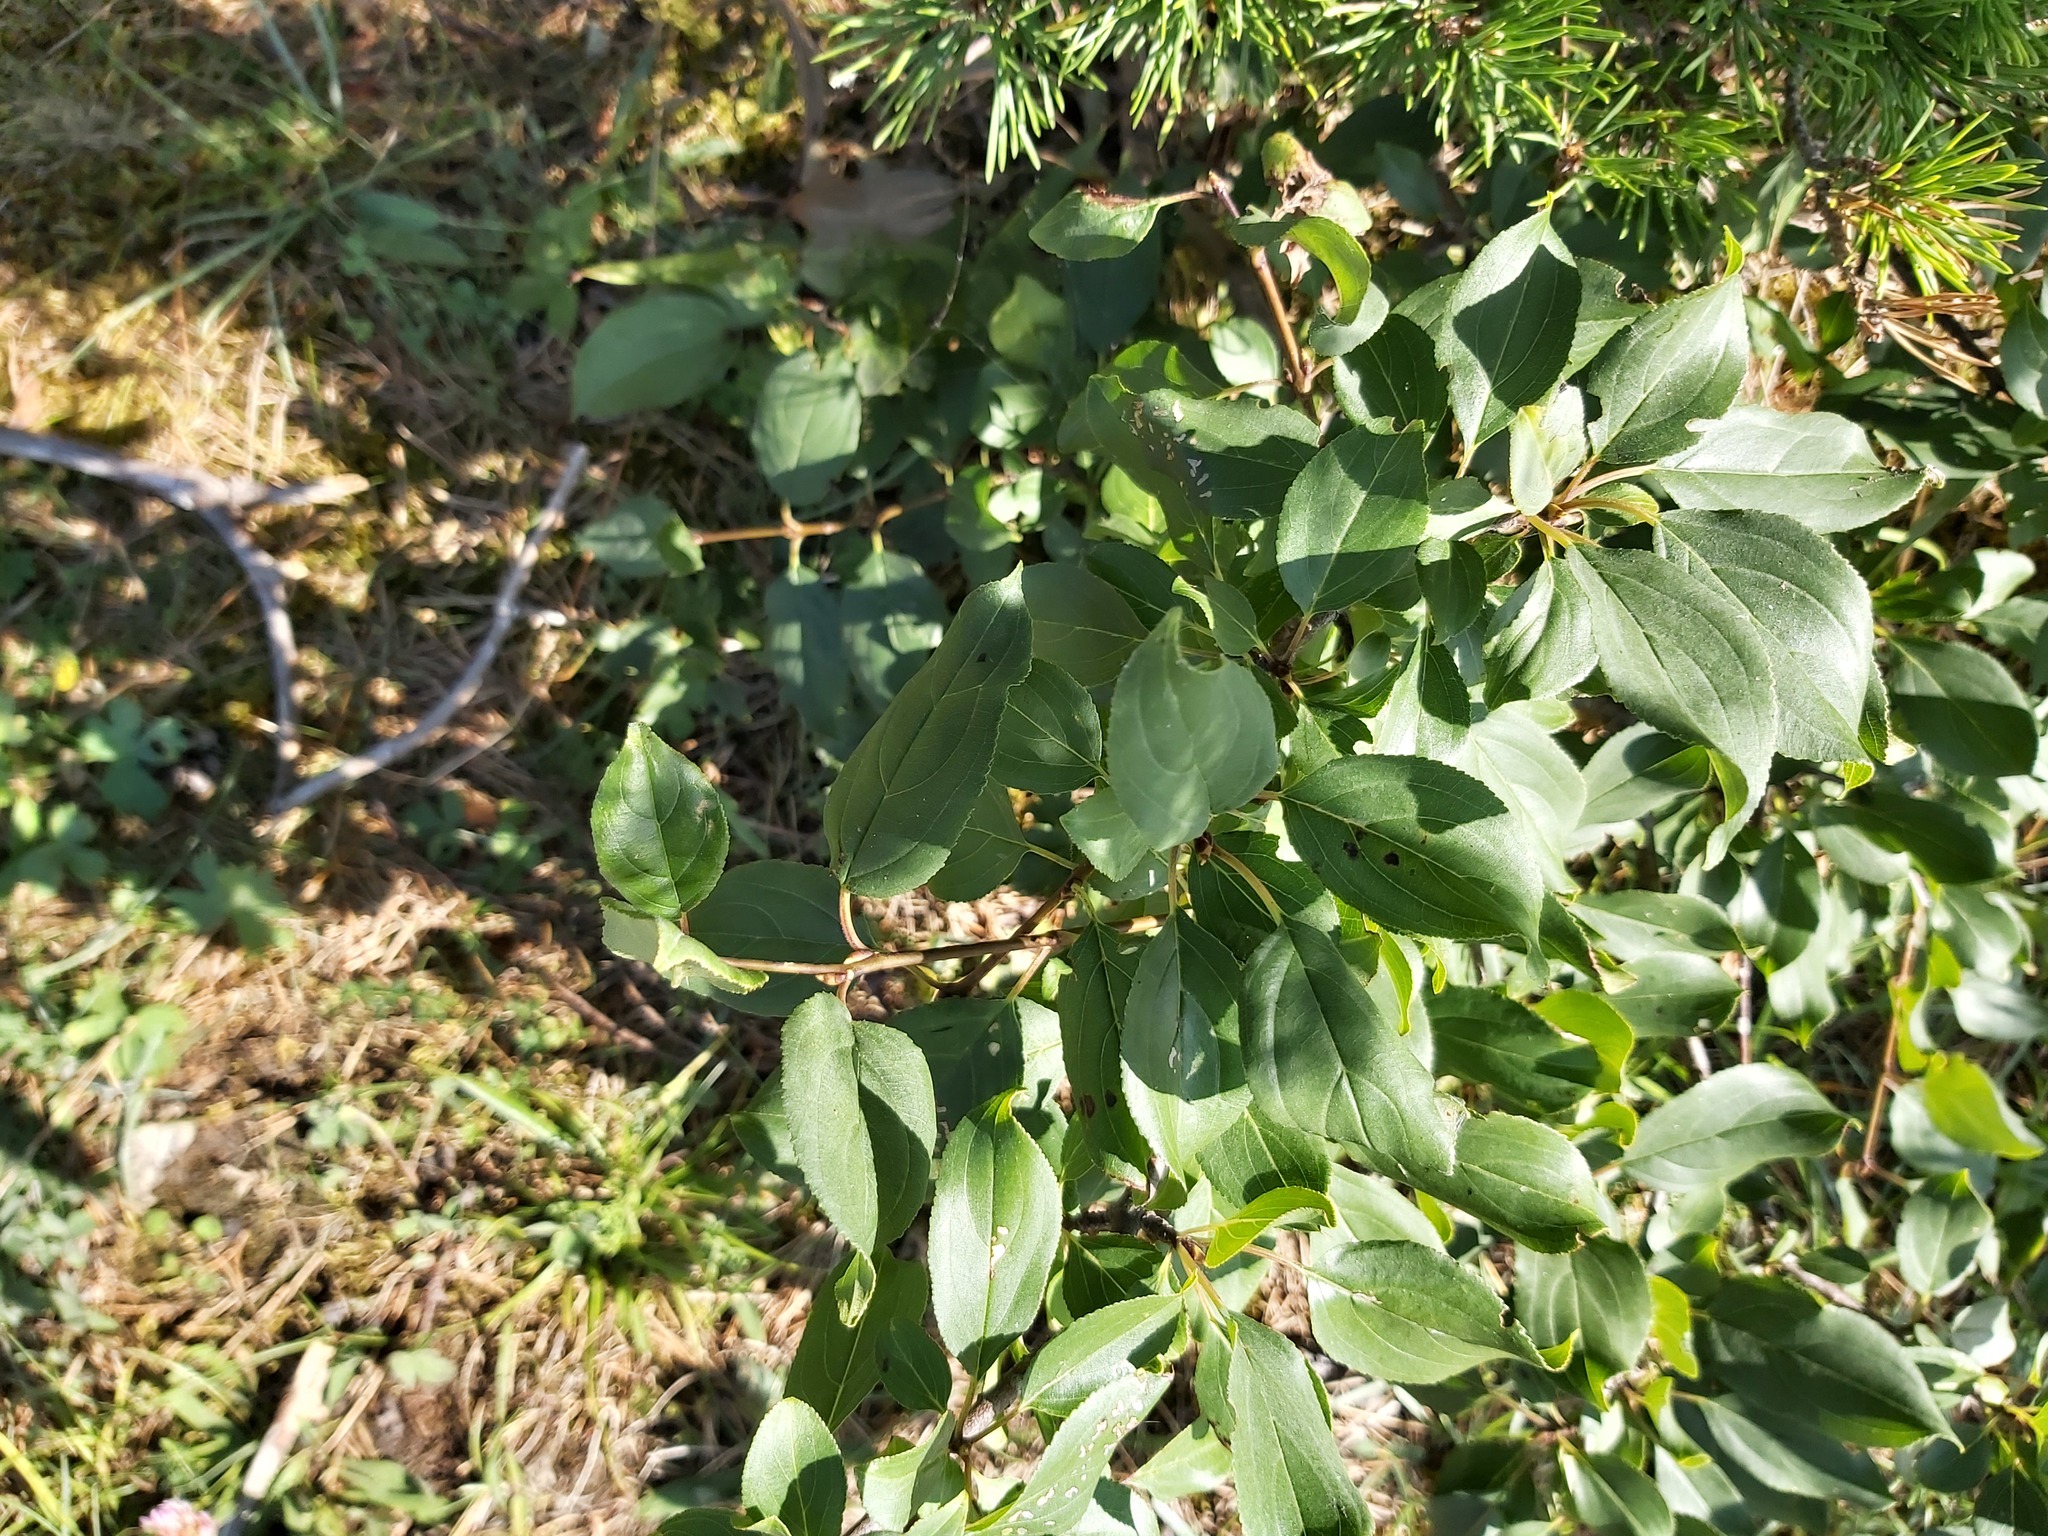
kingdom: Plantae
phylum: Tracheophyta
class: Magnoliopsida
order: Rosales
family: Rhamnaceae
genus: Rhamnus
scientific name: Rhamnus cathartica
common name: Common buckthorn
